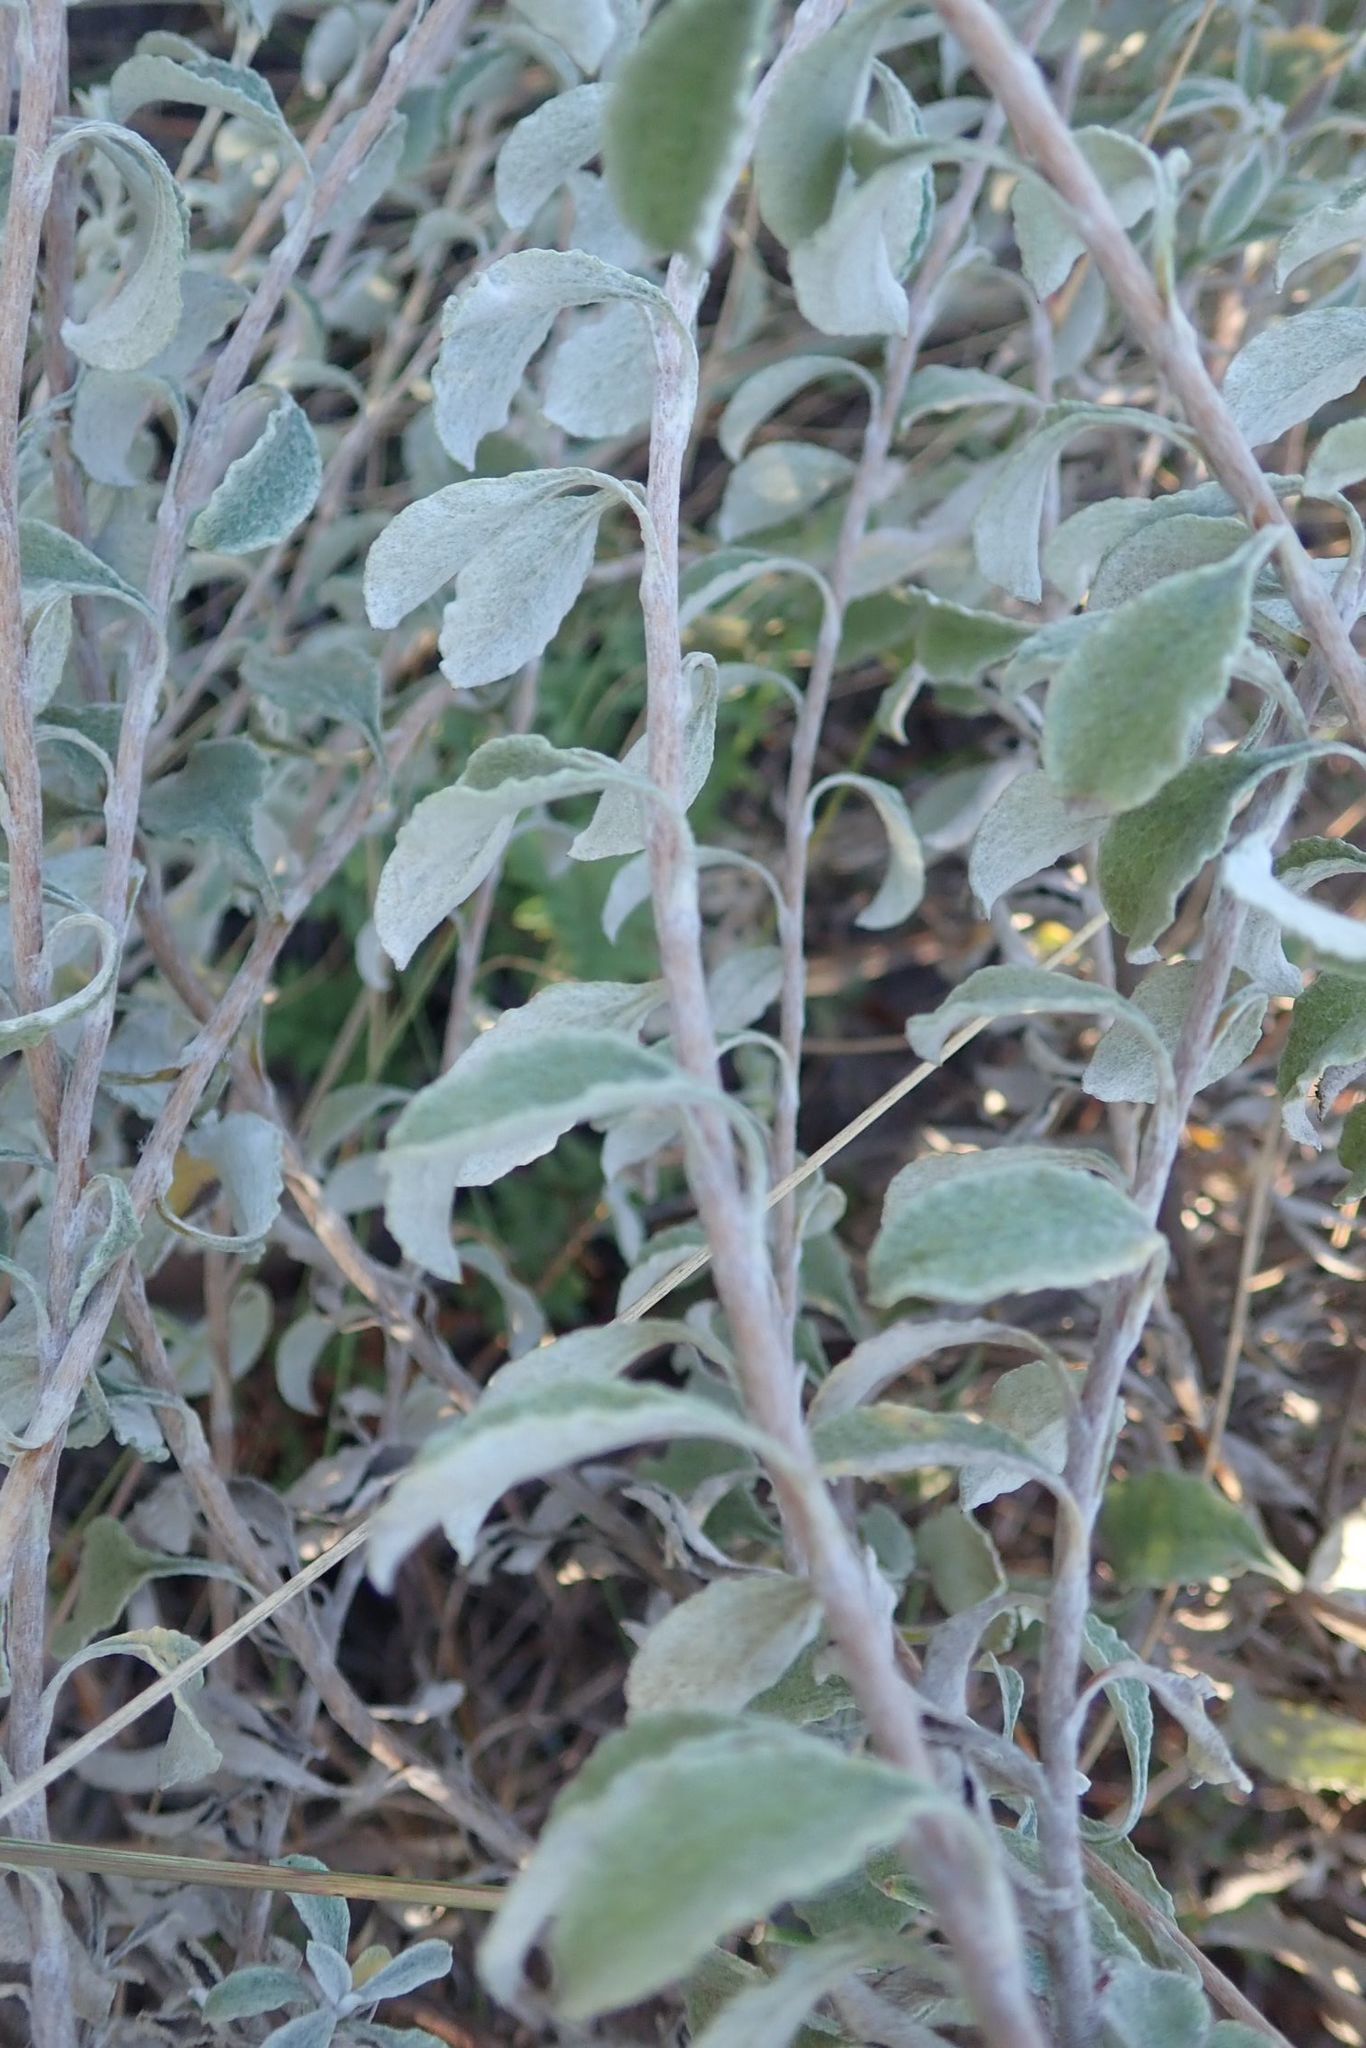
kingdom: Plantae
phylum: Tracheophyta
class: Magnoliopsida
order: Asterales
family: Asteraceae
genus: Helichrysum
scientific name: Helichrysum lepidissimum
